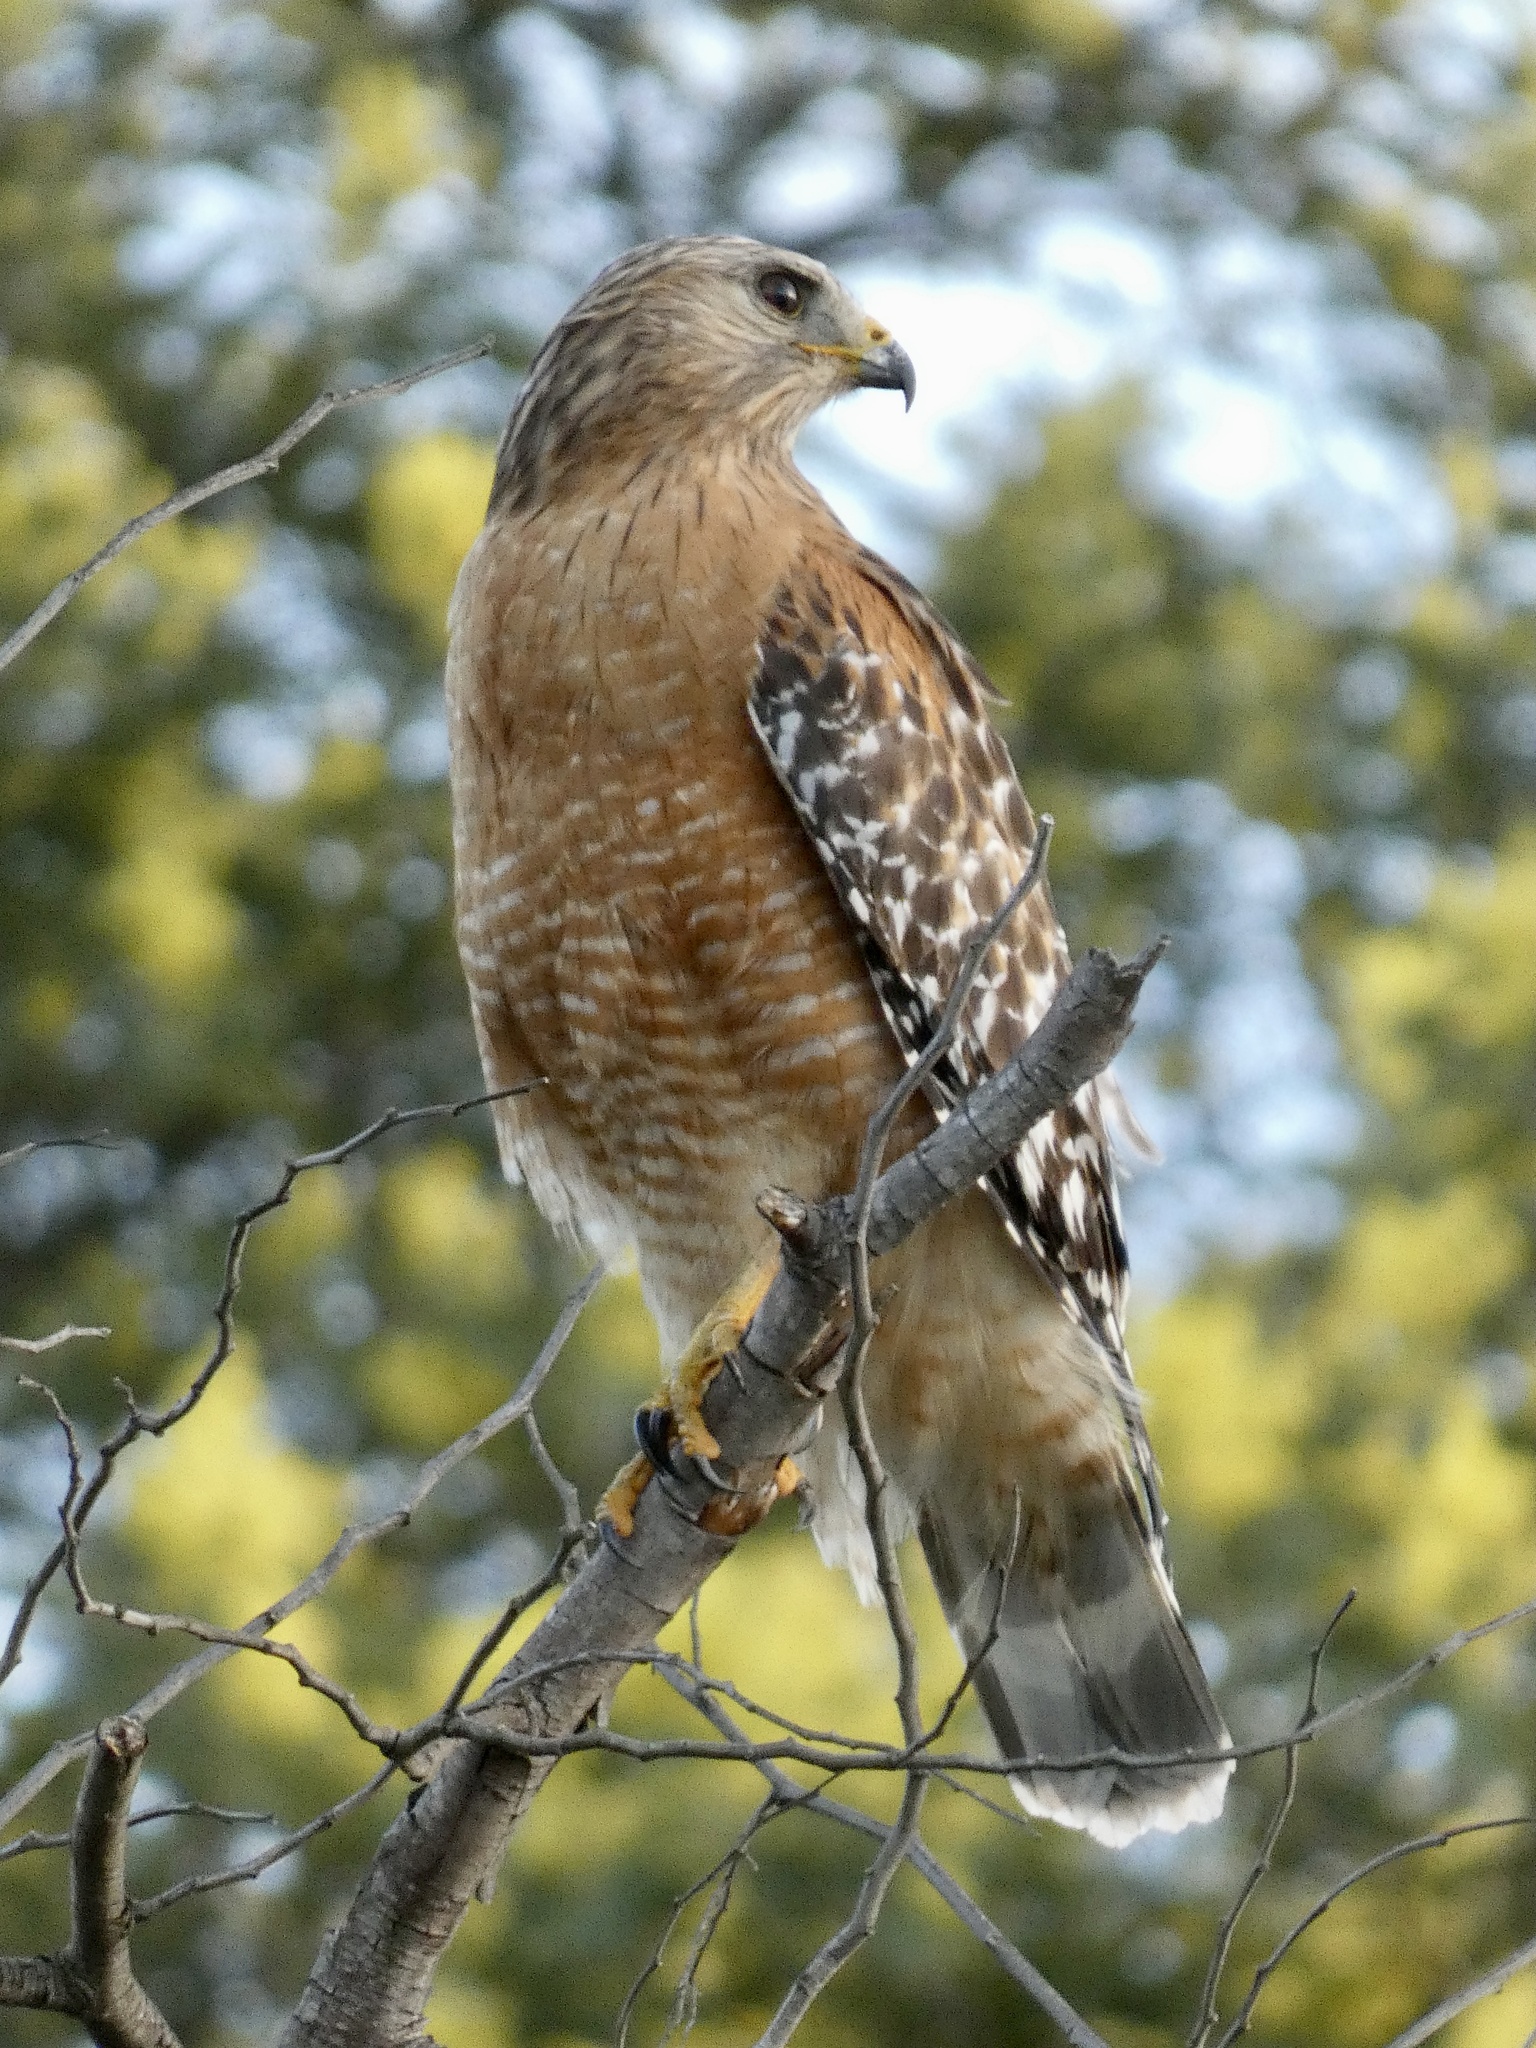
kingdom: Animalia
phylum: Chordata
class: Aves
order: Accipitriformes
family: Accipitridae
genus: Buteo
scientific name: Buteo lineatus
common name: Red-shouldered hawk
